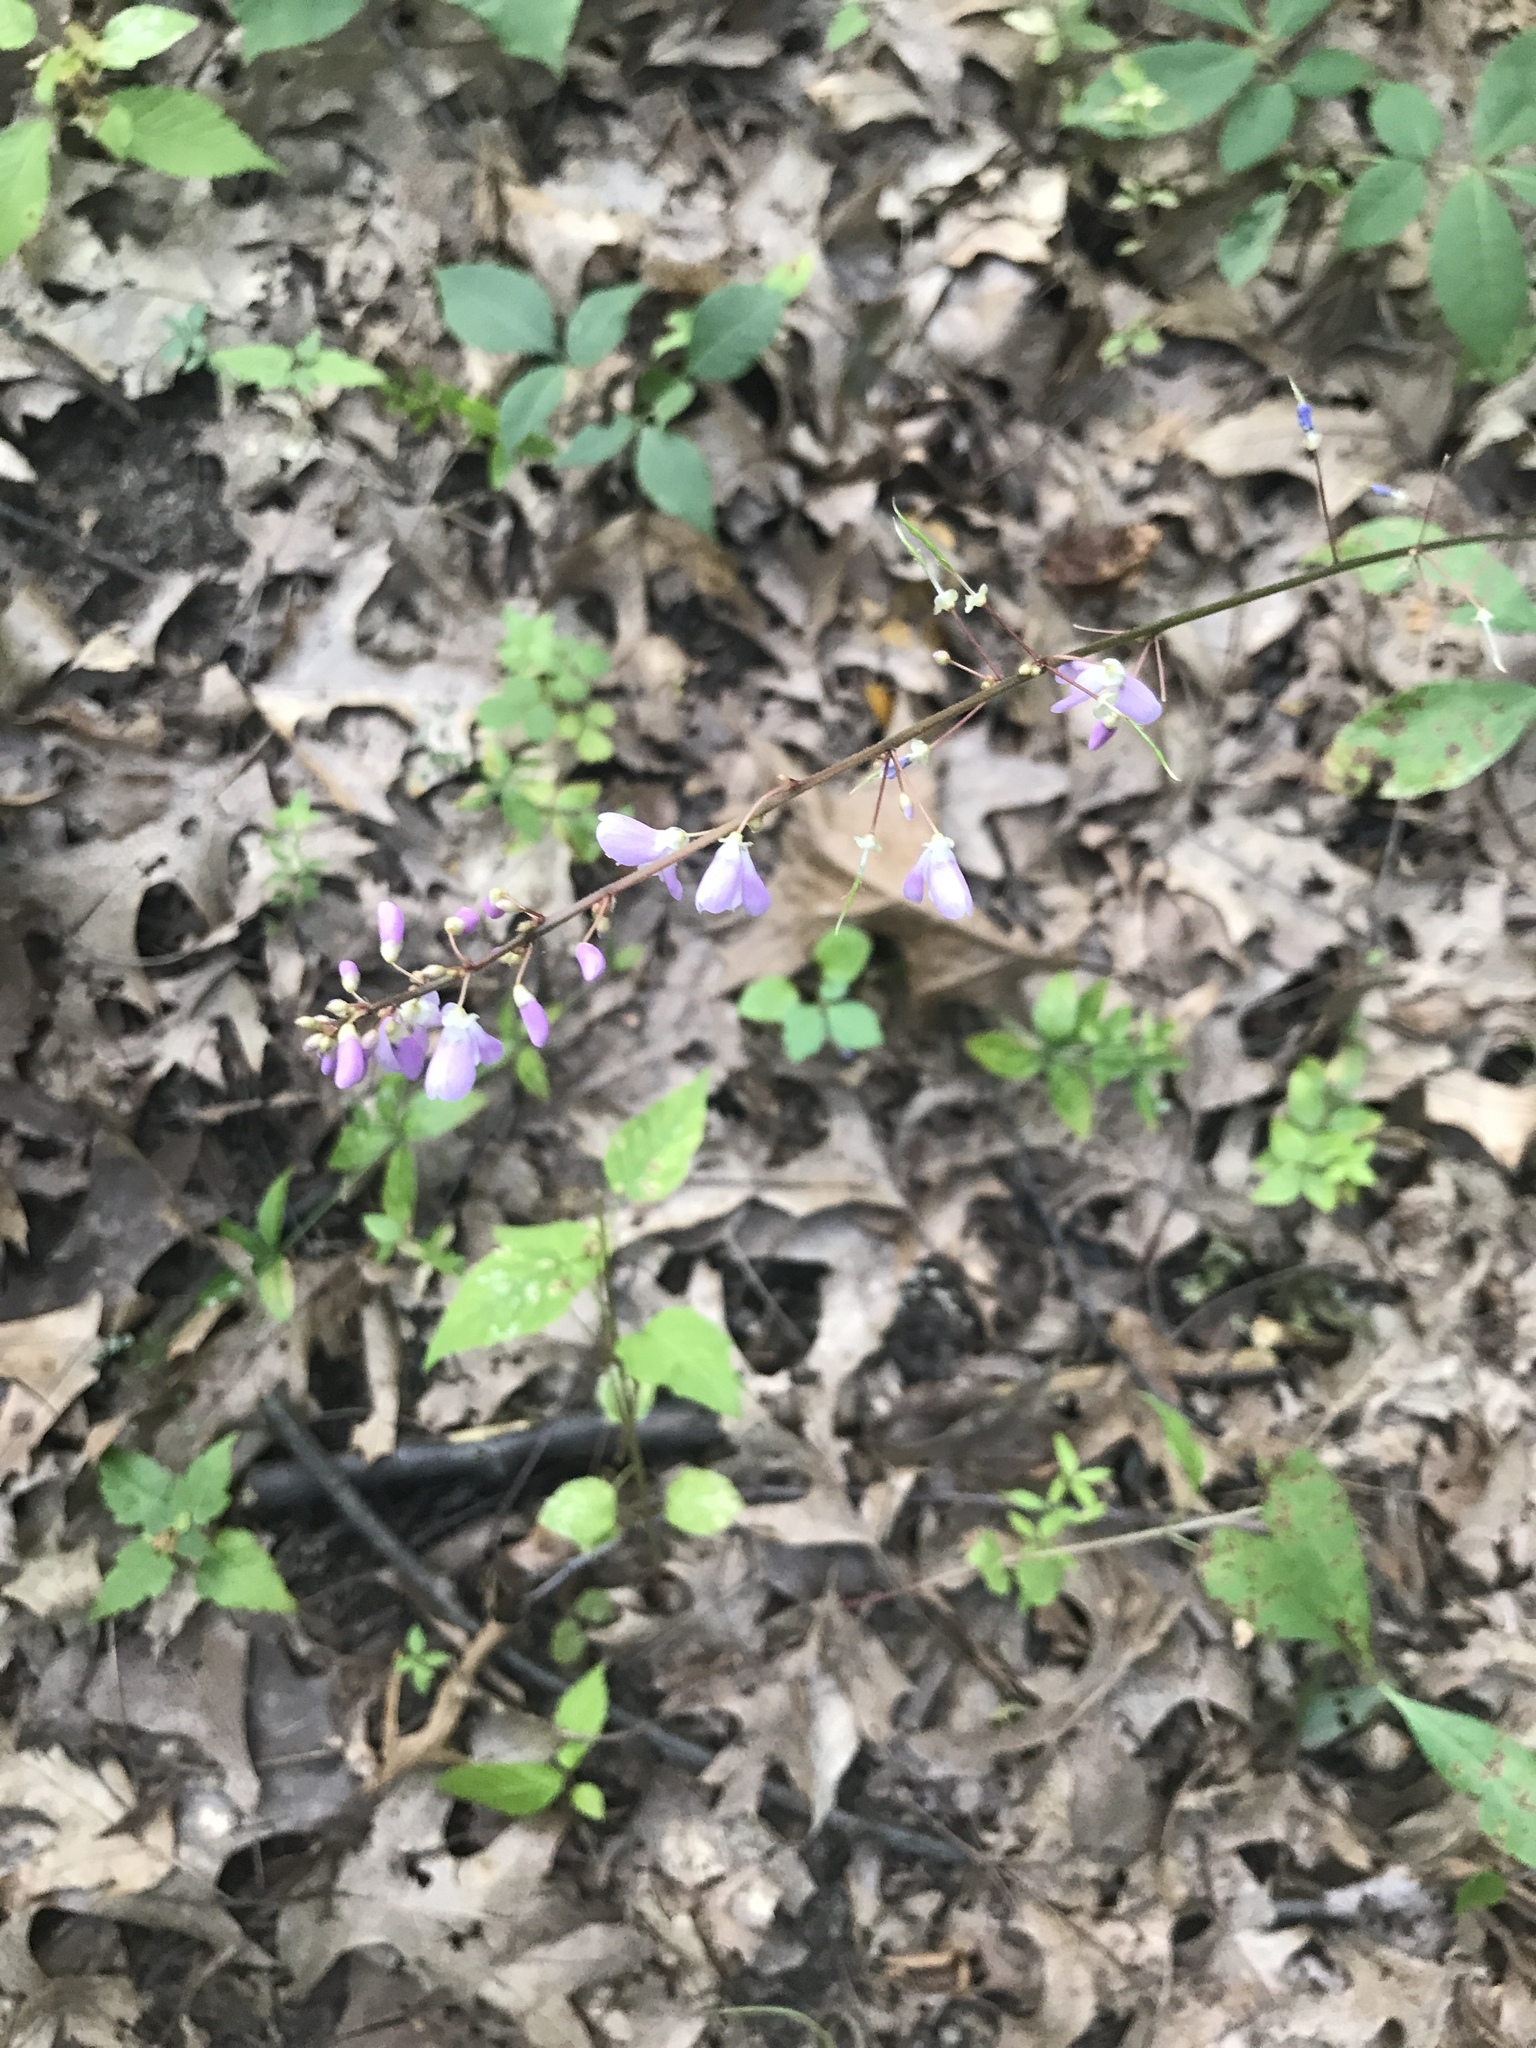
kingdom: Plantae
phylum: Tracheophyta
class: Magnoliopsida
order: Fabales
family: Fabaceae
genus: Hylodesmum
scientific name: Hylodesmum nudiflorum
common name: Bare-stemmed tick-trefoil
